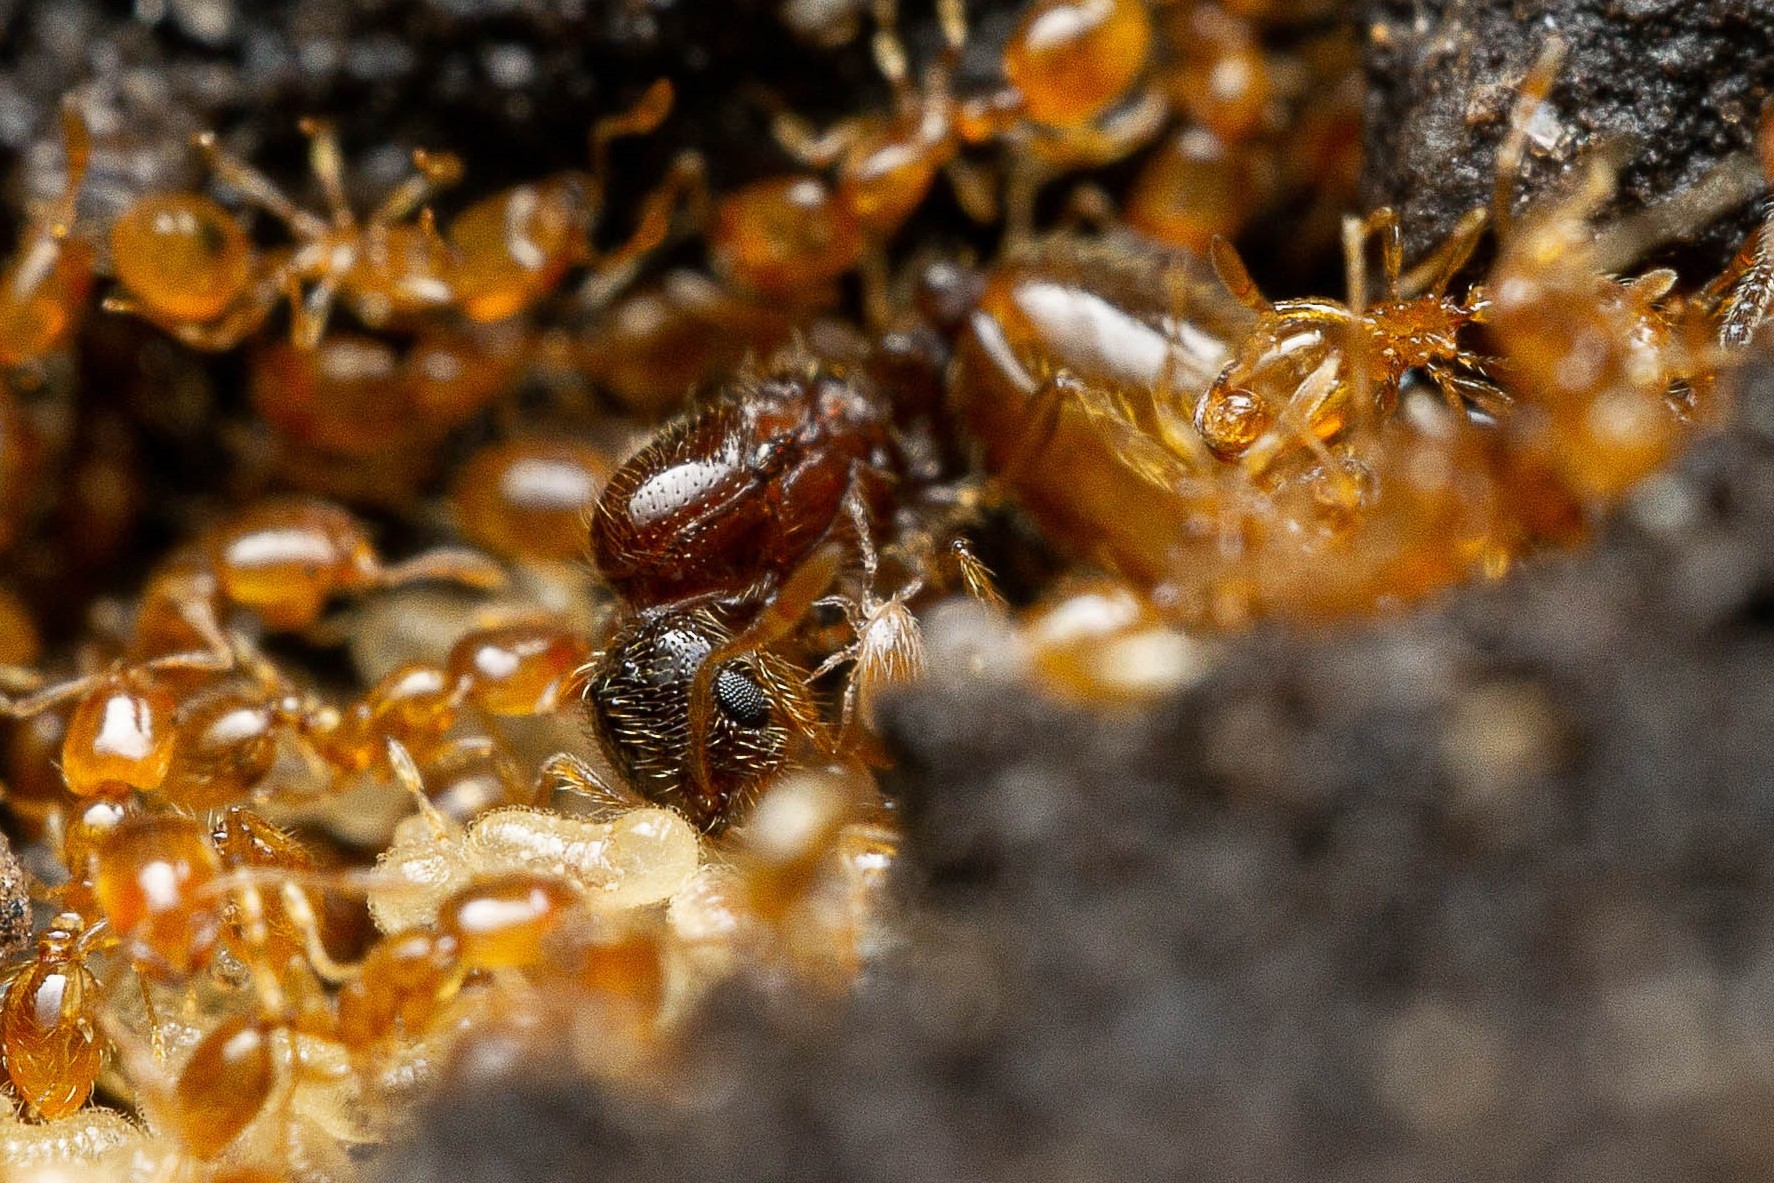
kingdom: Animalia
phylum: Arthropoda
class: Insecta
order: Hymenoptera
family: Formicidae
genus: Solenopsis
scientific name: Solenopsis texana
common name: Texas thief ant
